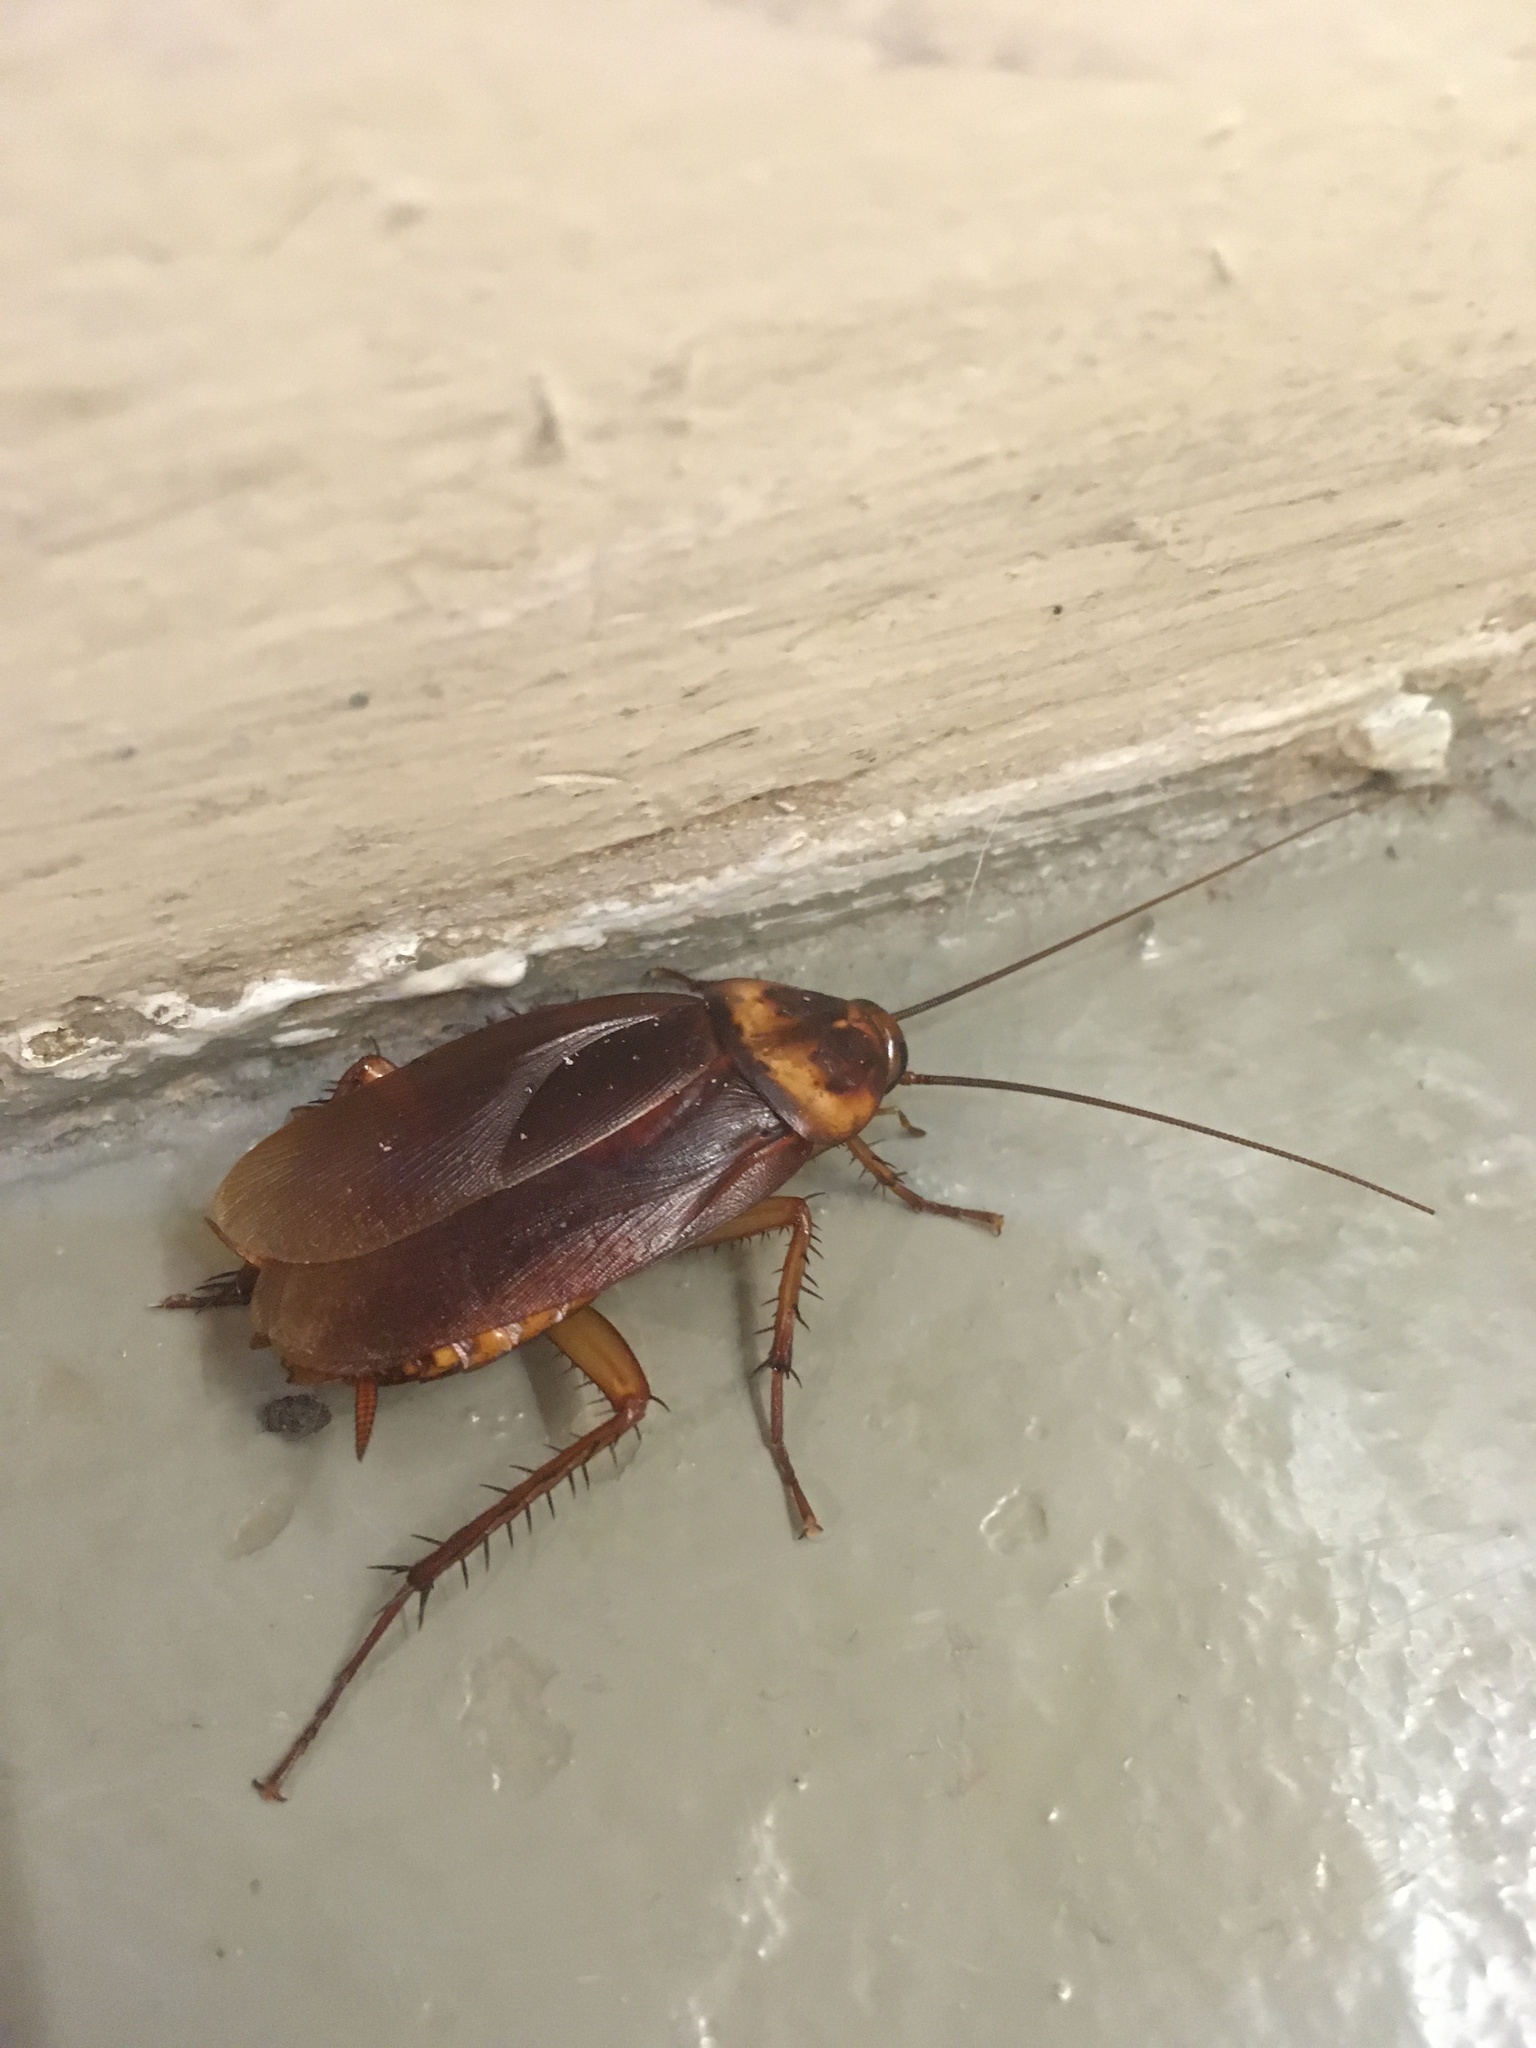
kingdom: Animalia
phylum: Arthropoda
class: Insecta
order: Blattodea
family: Blattidae
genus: Periplaneta
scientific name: Periplaneta americana
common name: American cockroach
